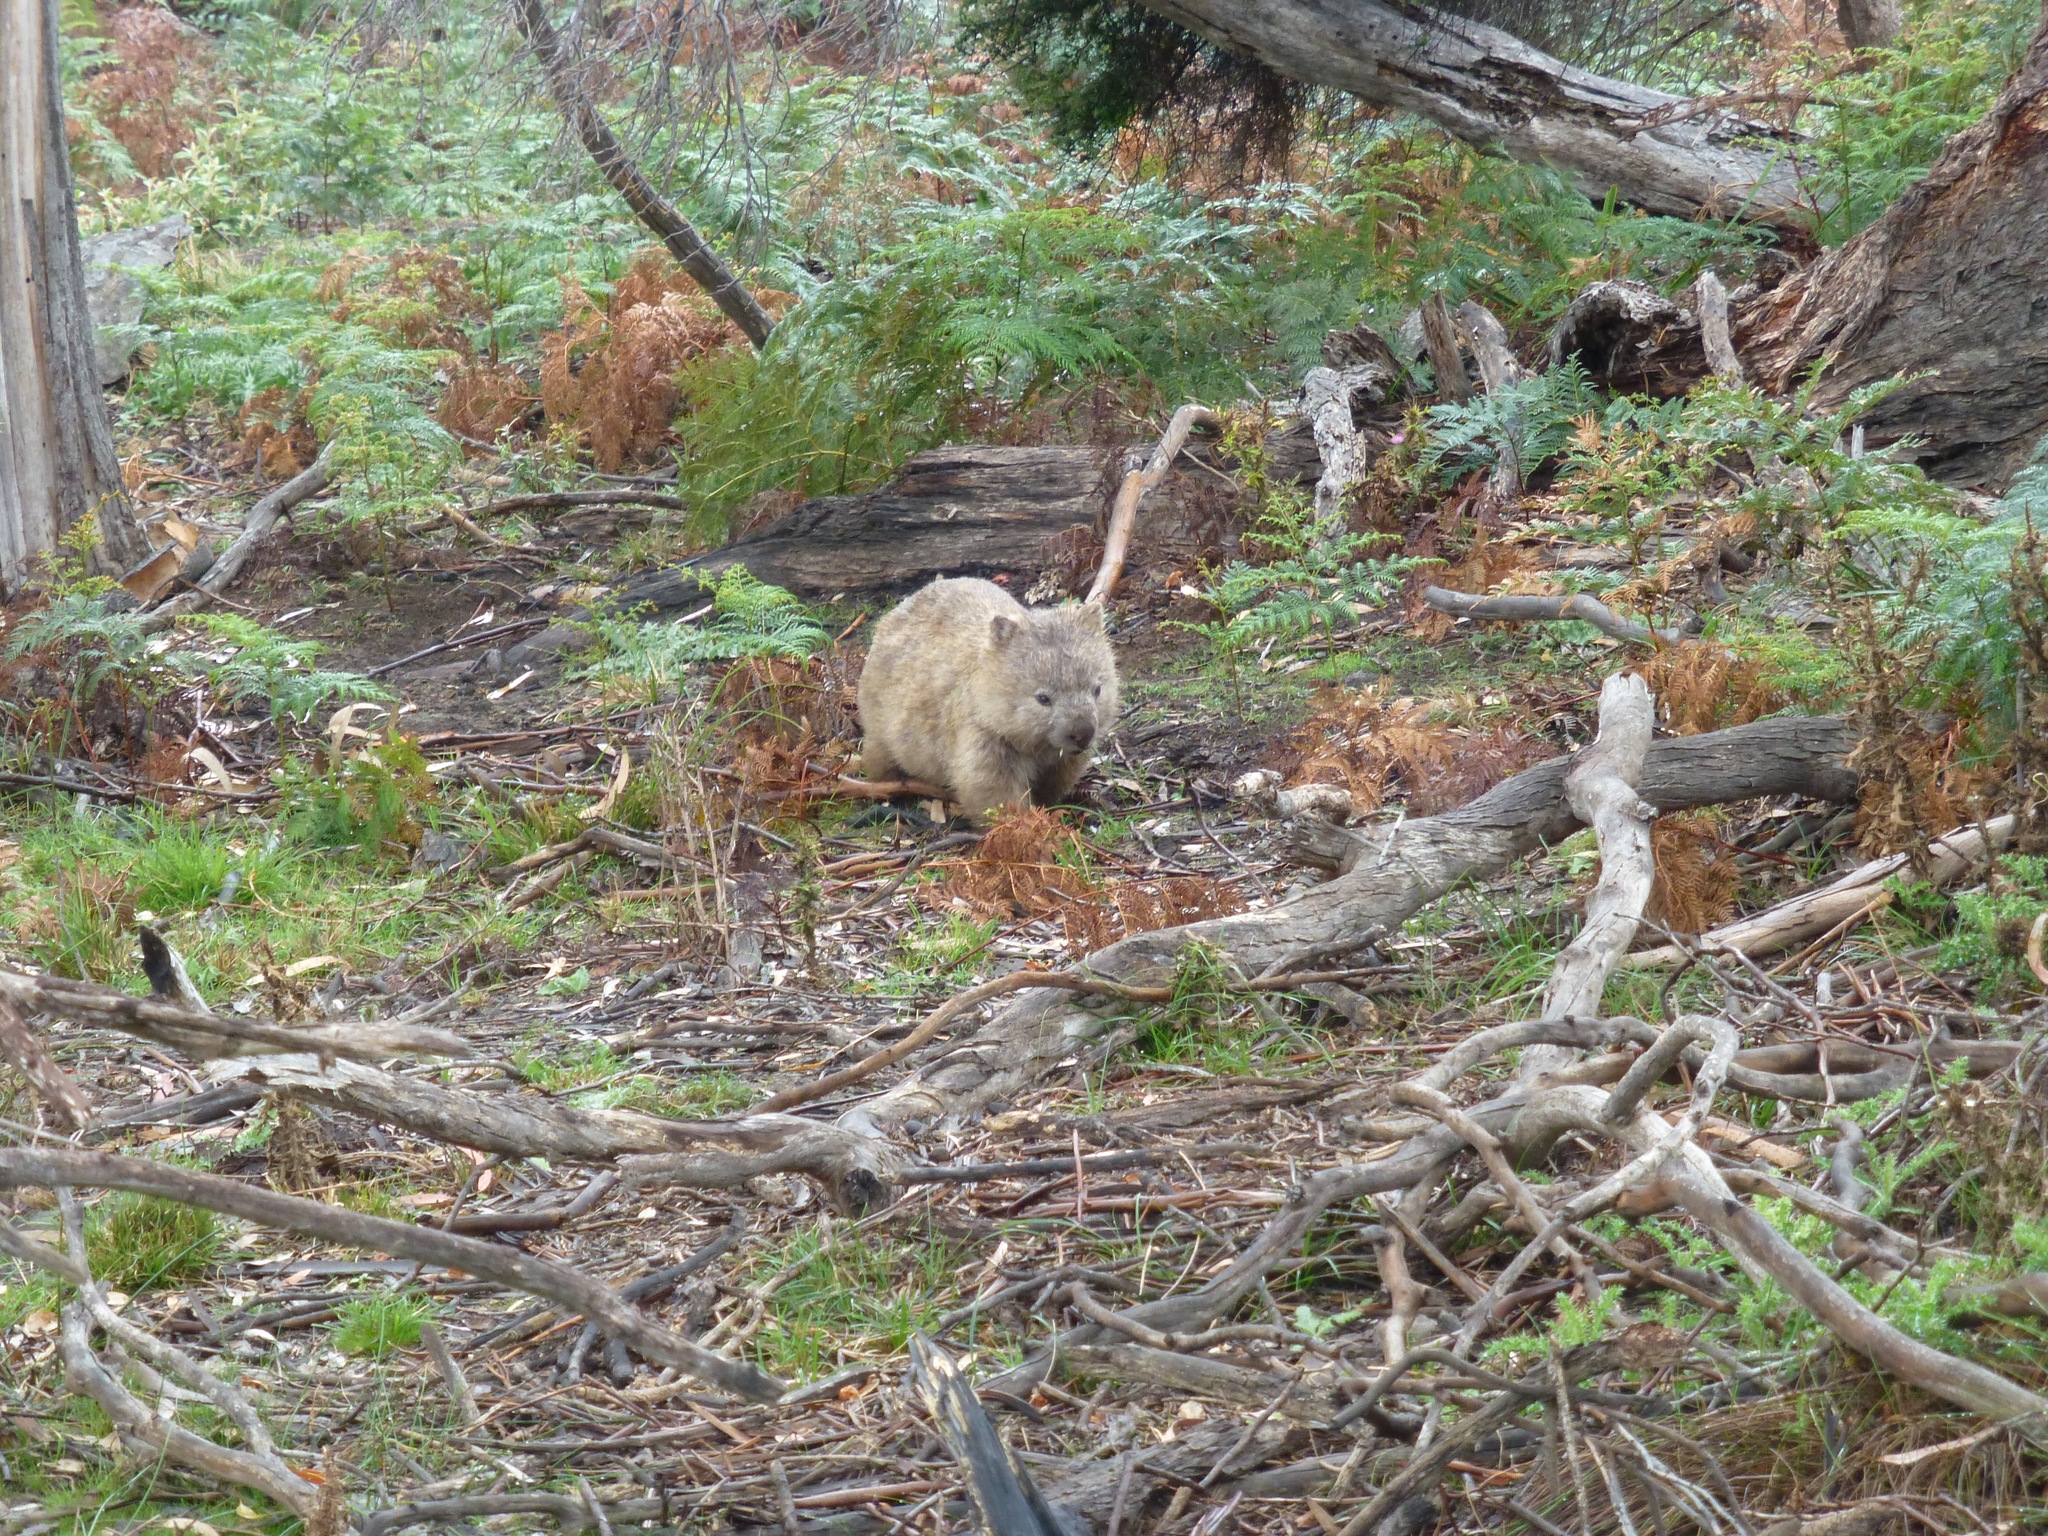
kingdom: Animalia
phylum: Chordata
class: Mammalia
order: Diprotodontia
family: Vombatidae
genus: Vombatus
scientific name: Vombatus ursinus
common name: Common wombat
